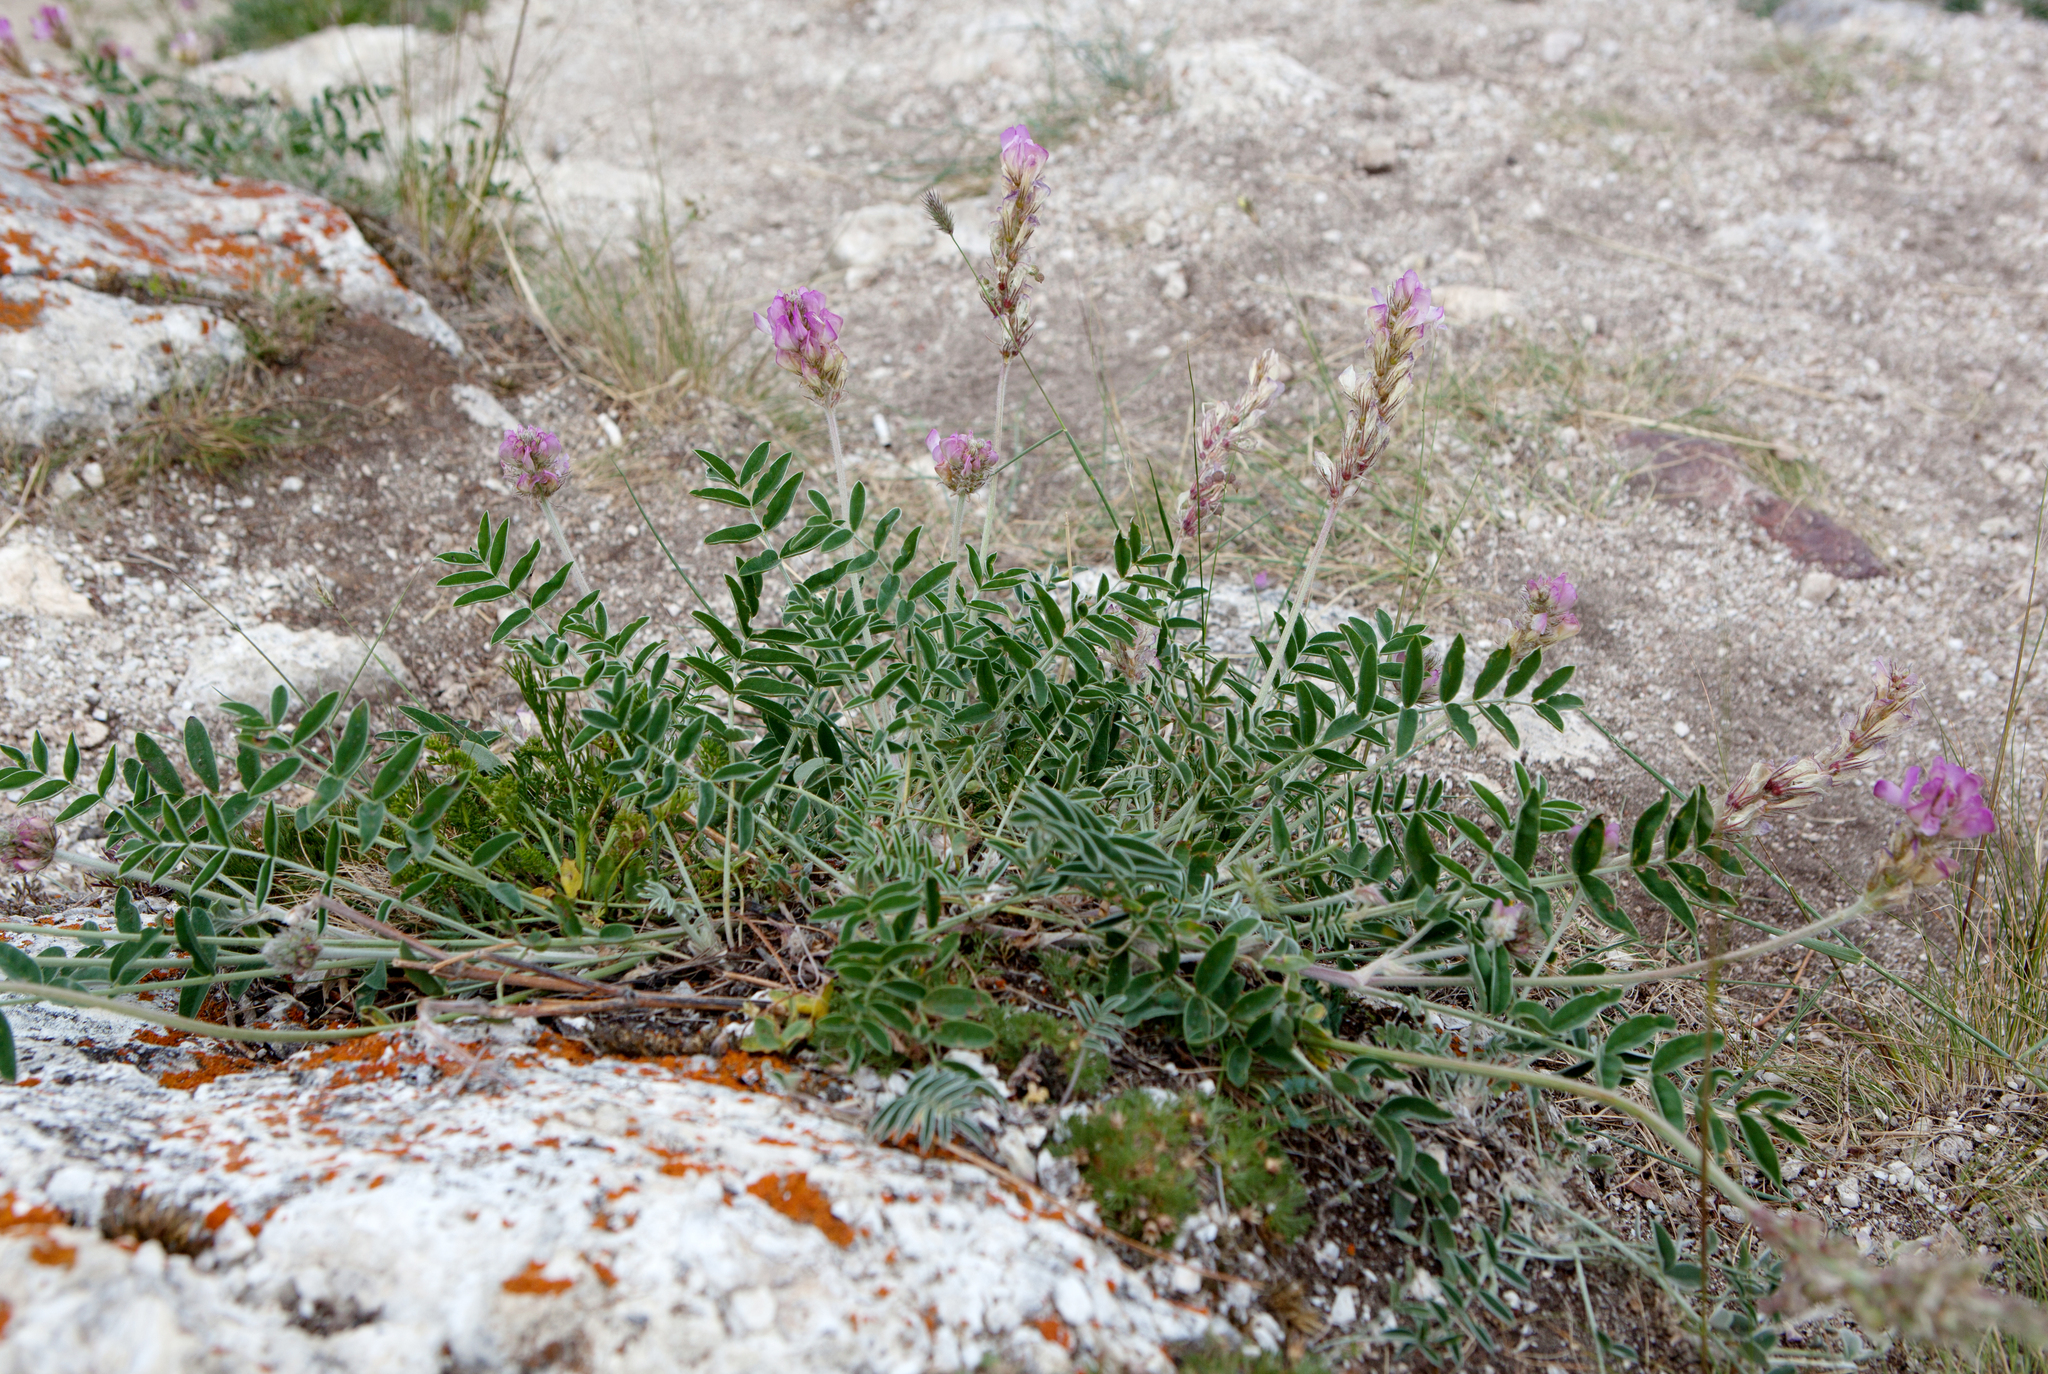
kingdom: Plantae
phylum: Tracheophyta
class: Magnoliopsida
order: Fabales
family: Fabaceae
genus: Hedysarum
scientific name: Hedysarum gmelinii
